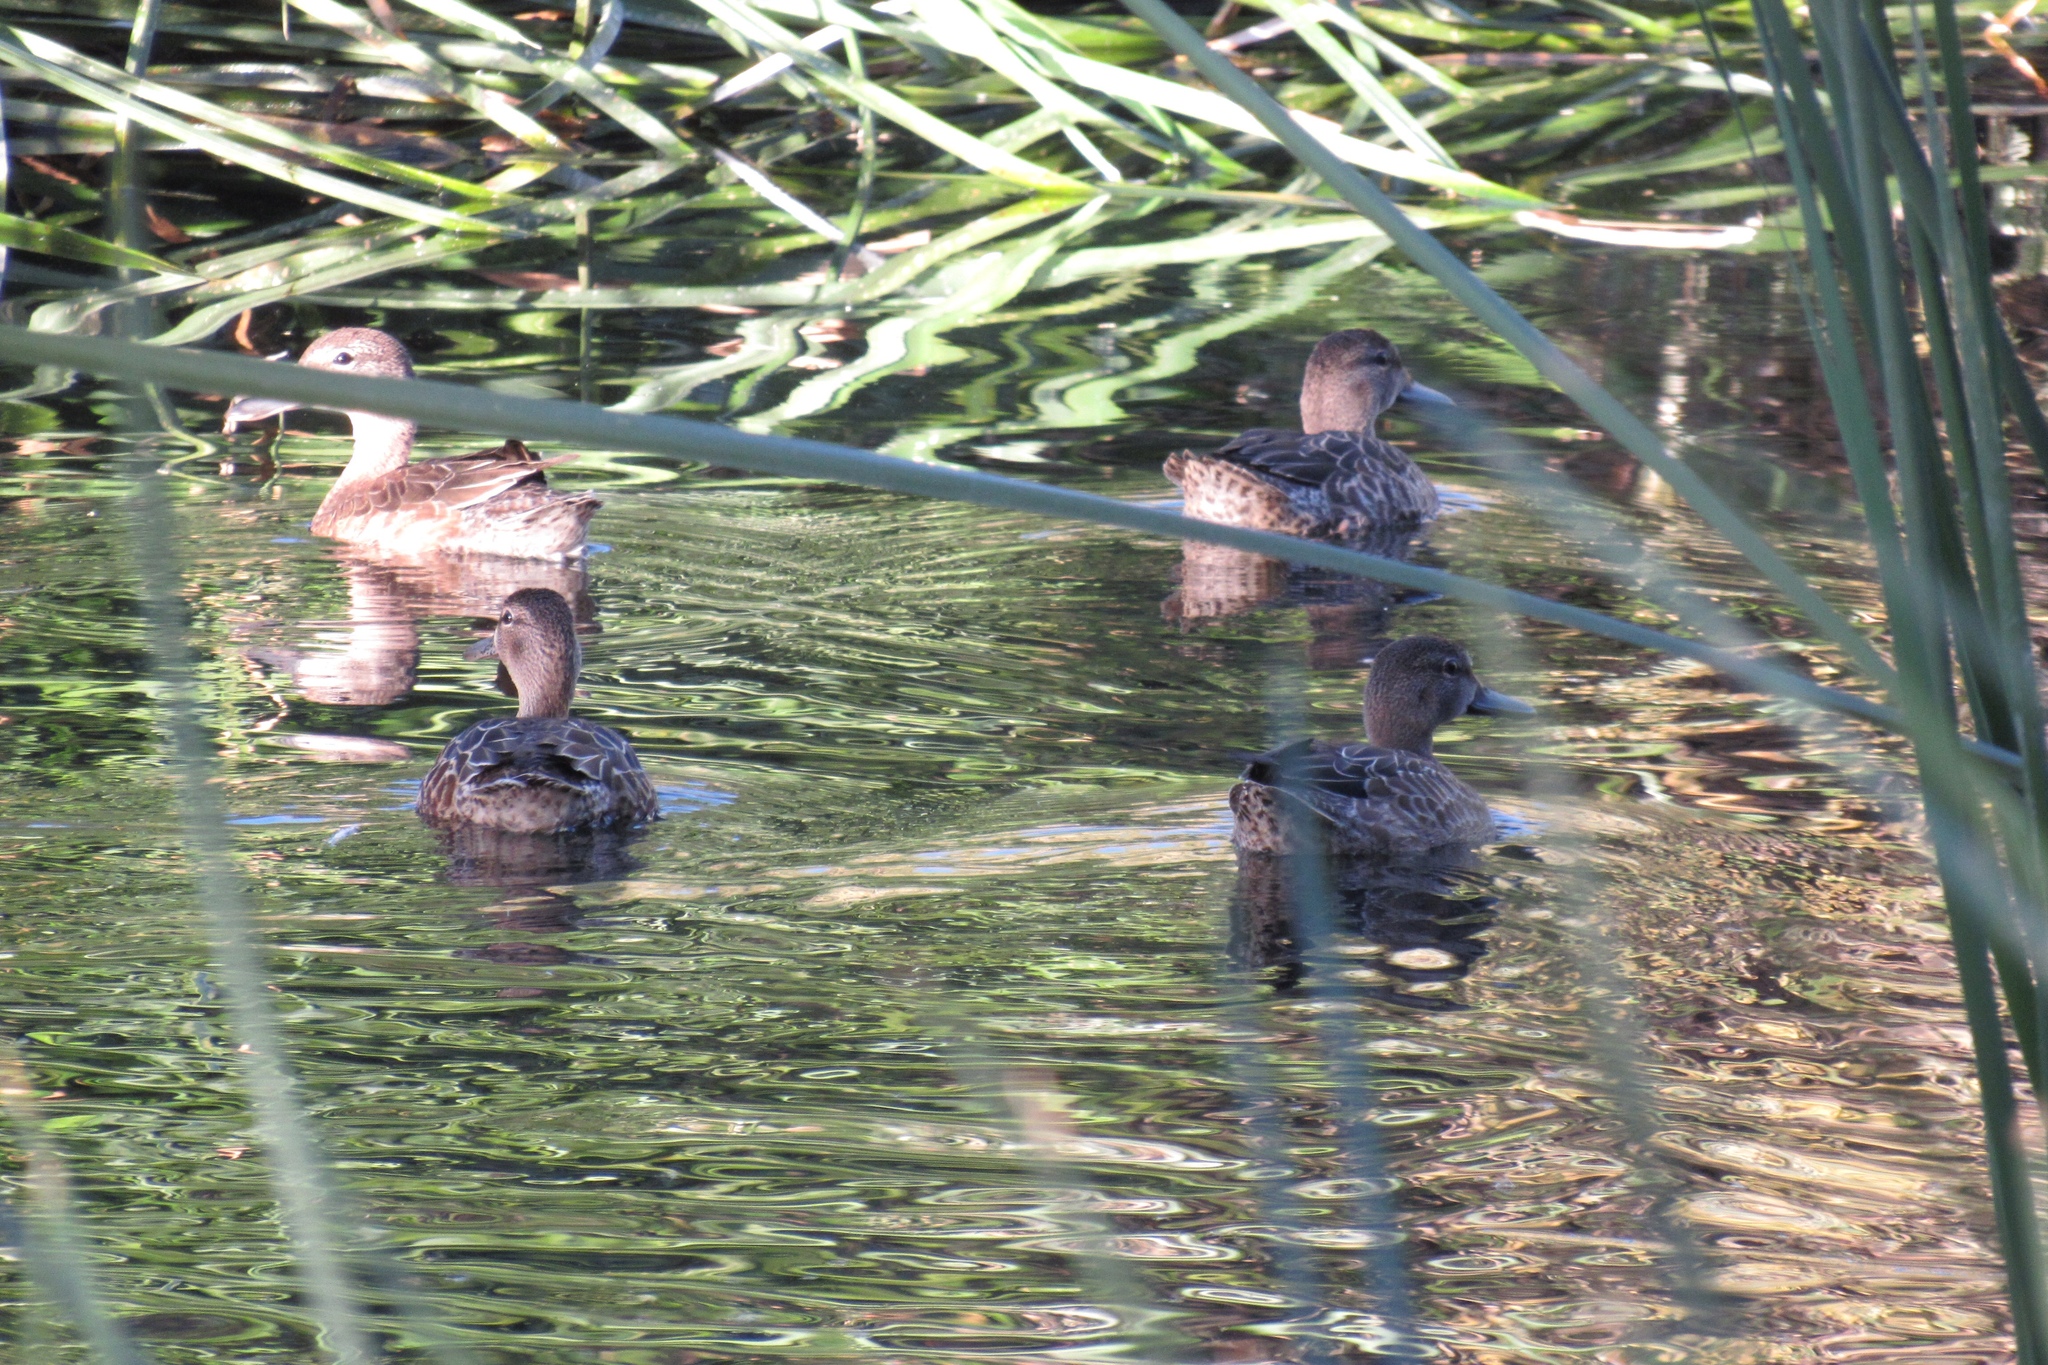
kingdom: Animalia
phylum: Chordata
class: Aves
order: Anseriformes
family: Anatidae
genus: Spatula
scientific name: Spatula discors
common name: Blue-winged teal
